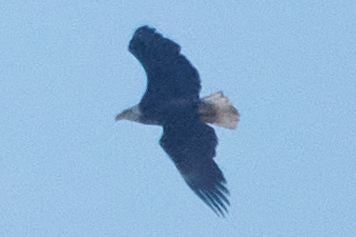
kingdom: Animalia
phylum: Chordata
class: Aves
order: Accipitriformes
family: Accipitridae
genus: Haliaeetus
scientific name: Haliaeetus leucocephalus
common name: Bald eagle
